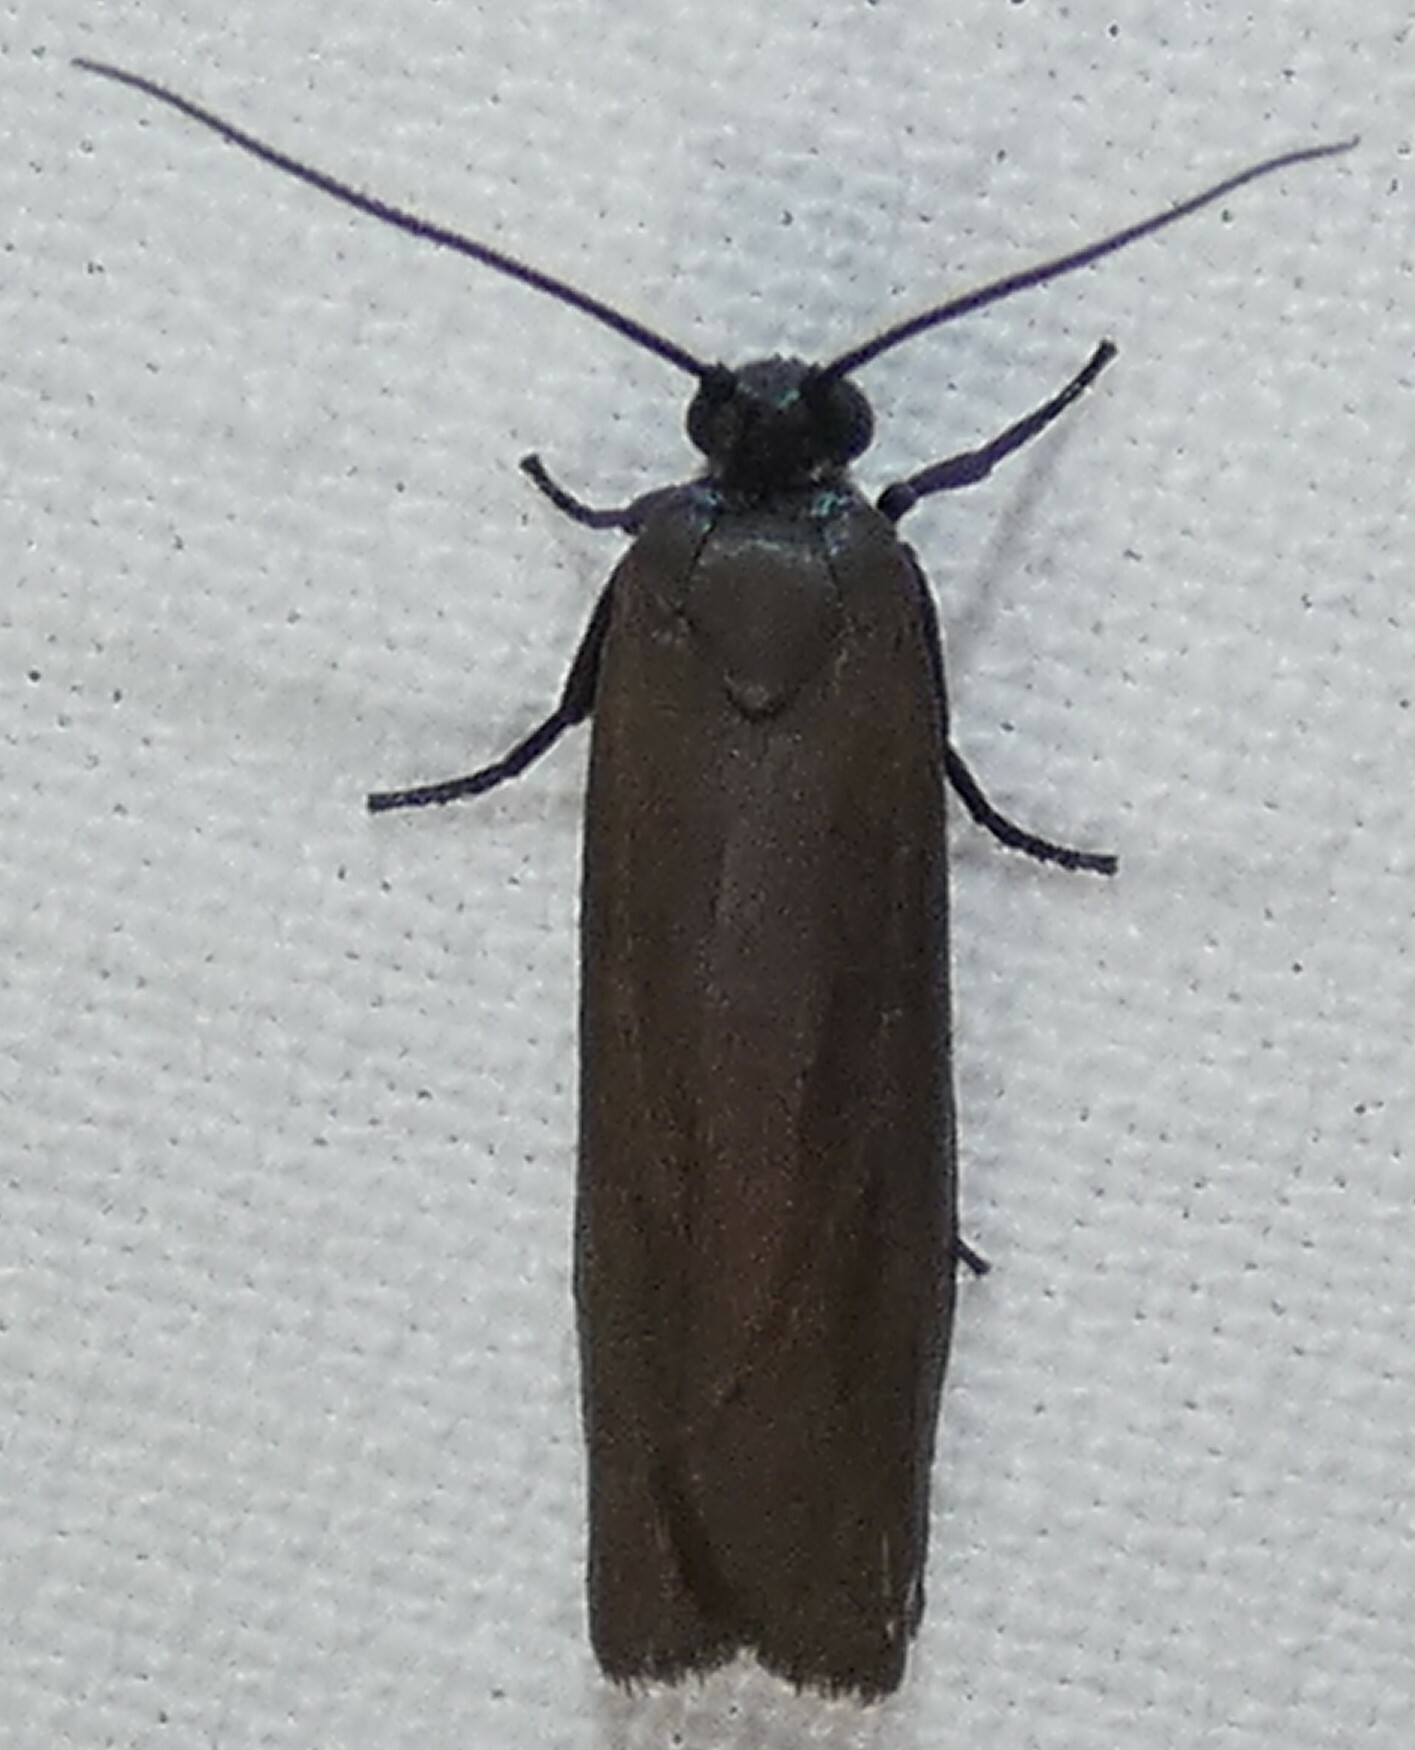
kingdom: Animalia
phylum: Arthropoda
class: Insecta
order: Lepidoptera
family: Urodidae
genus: Urodus
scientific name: Urodus parvula
